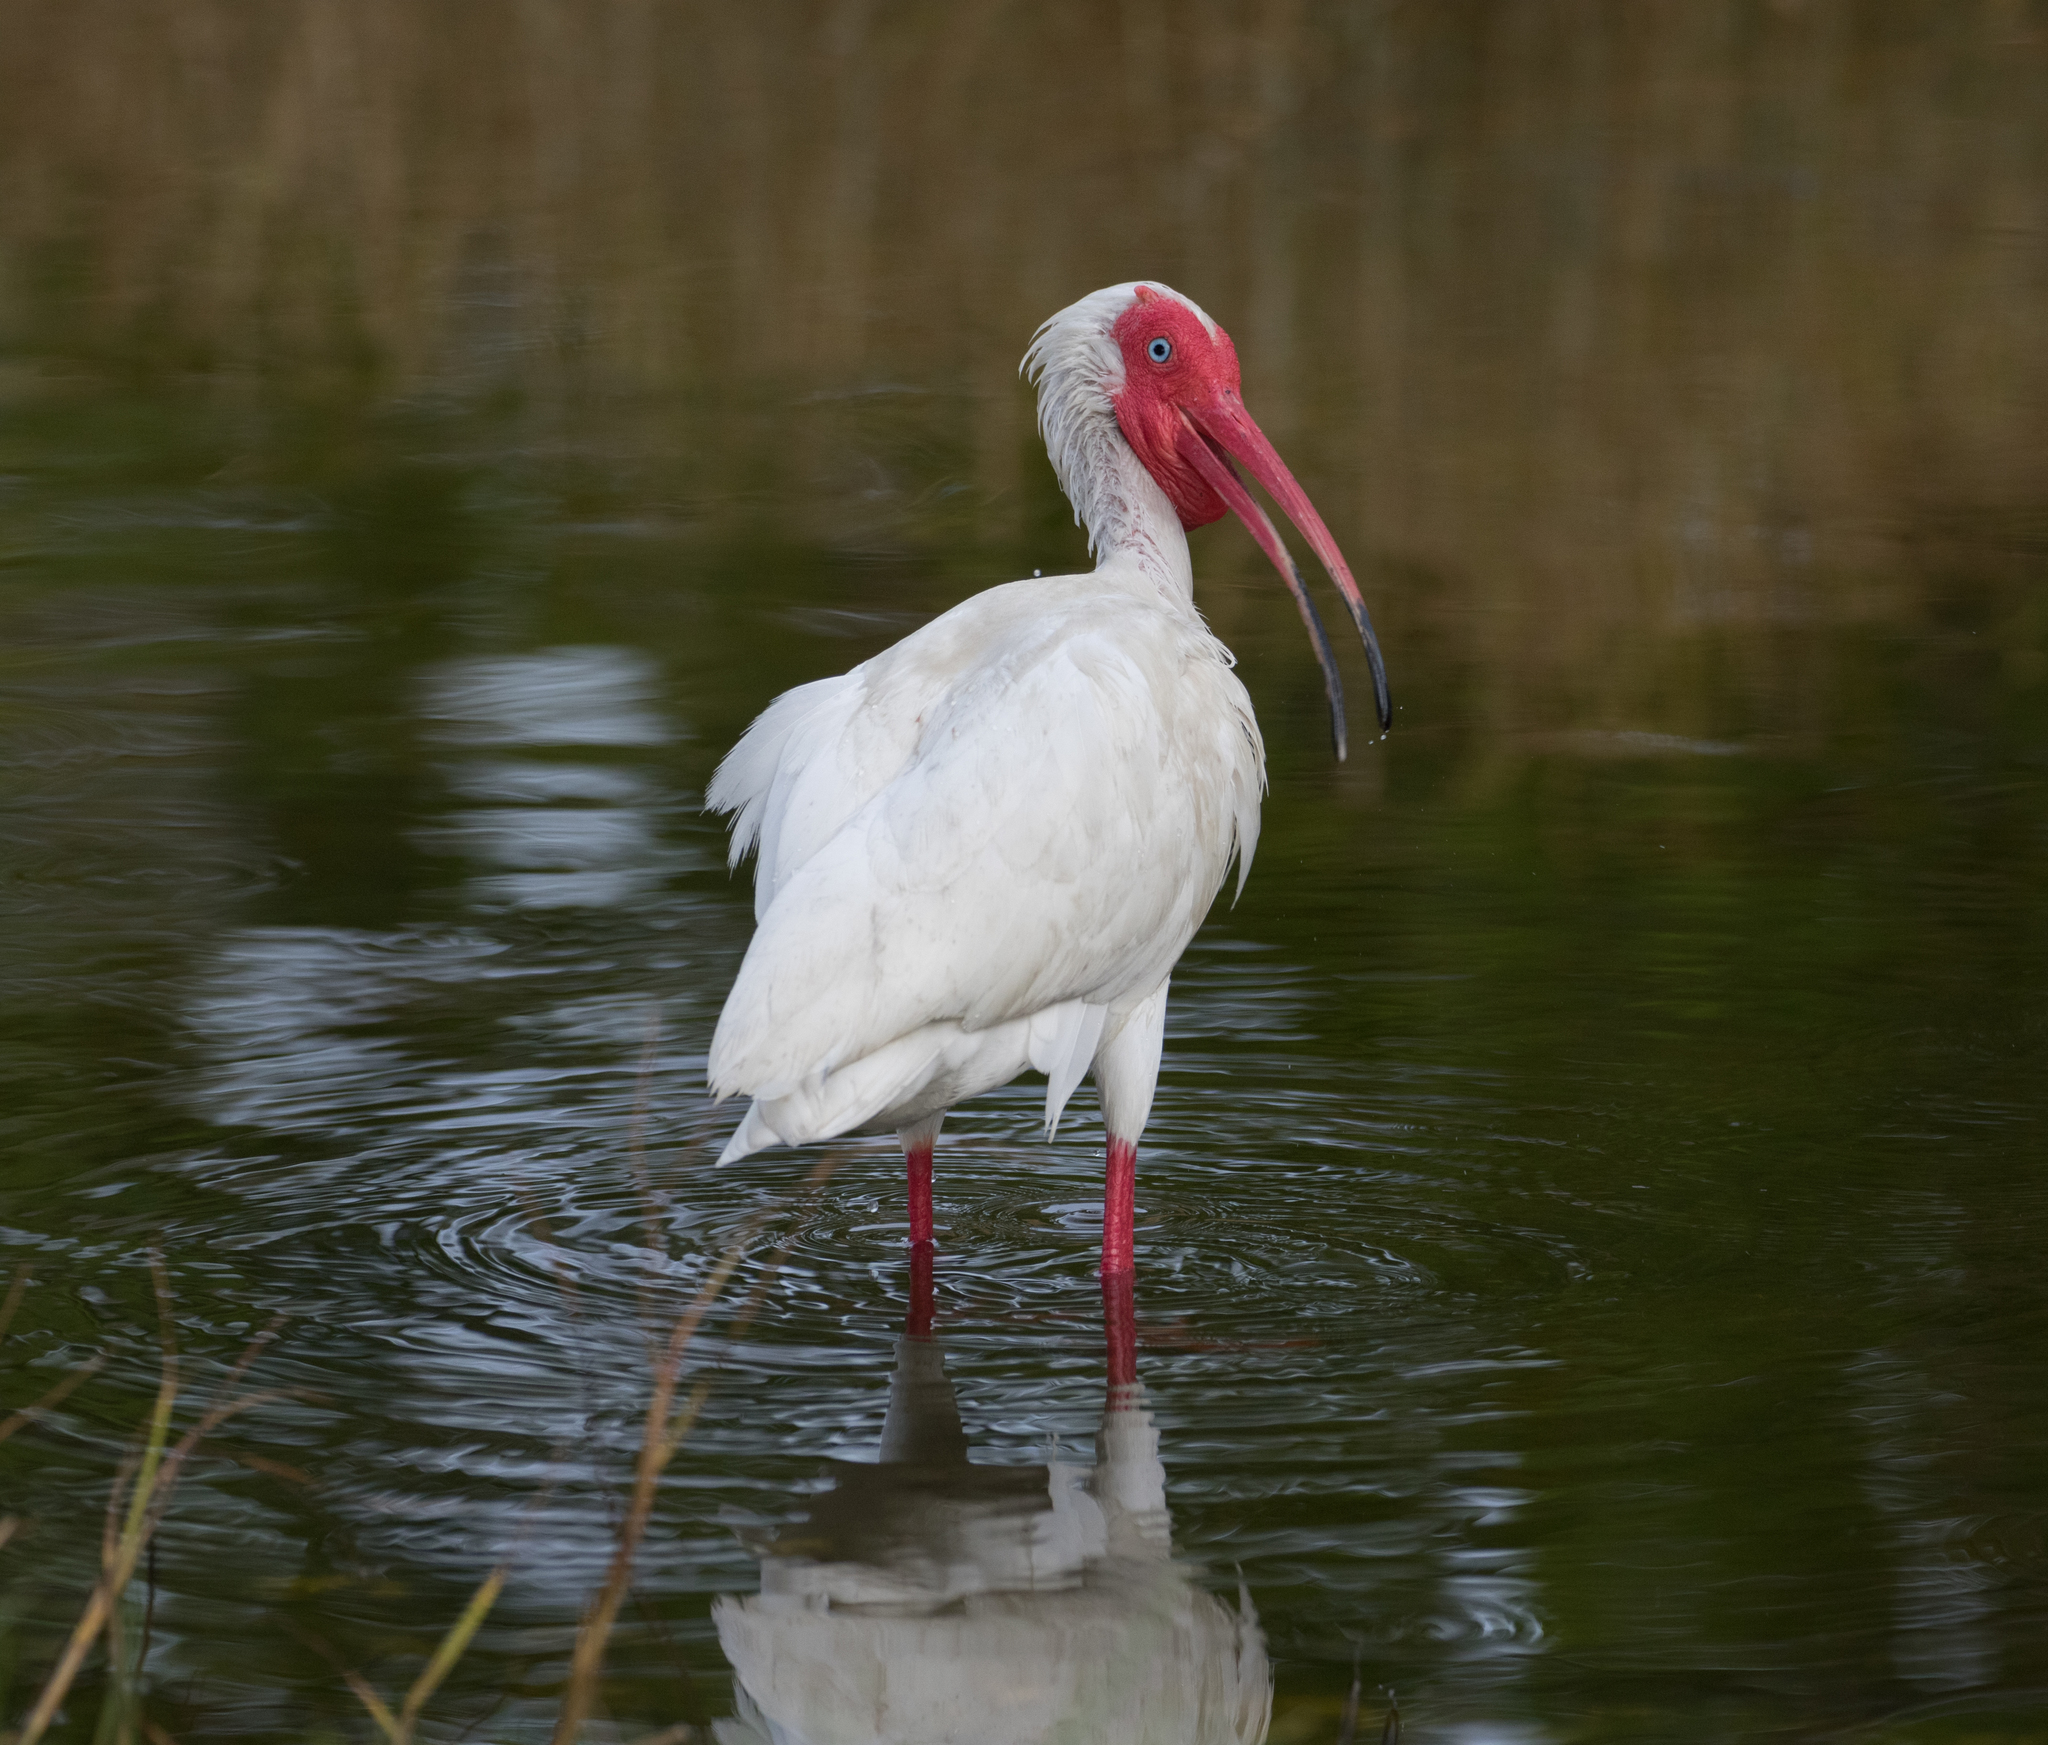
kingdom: Animalia
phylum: Chordata
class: Aves
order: Pelecaniformes
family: Threskiornithidae
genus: Eudocimus
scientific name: Eudocimus albus
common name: White ibis
